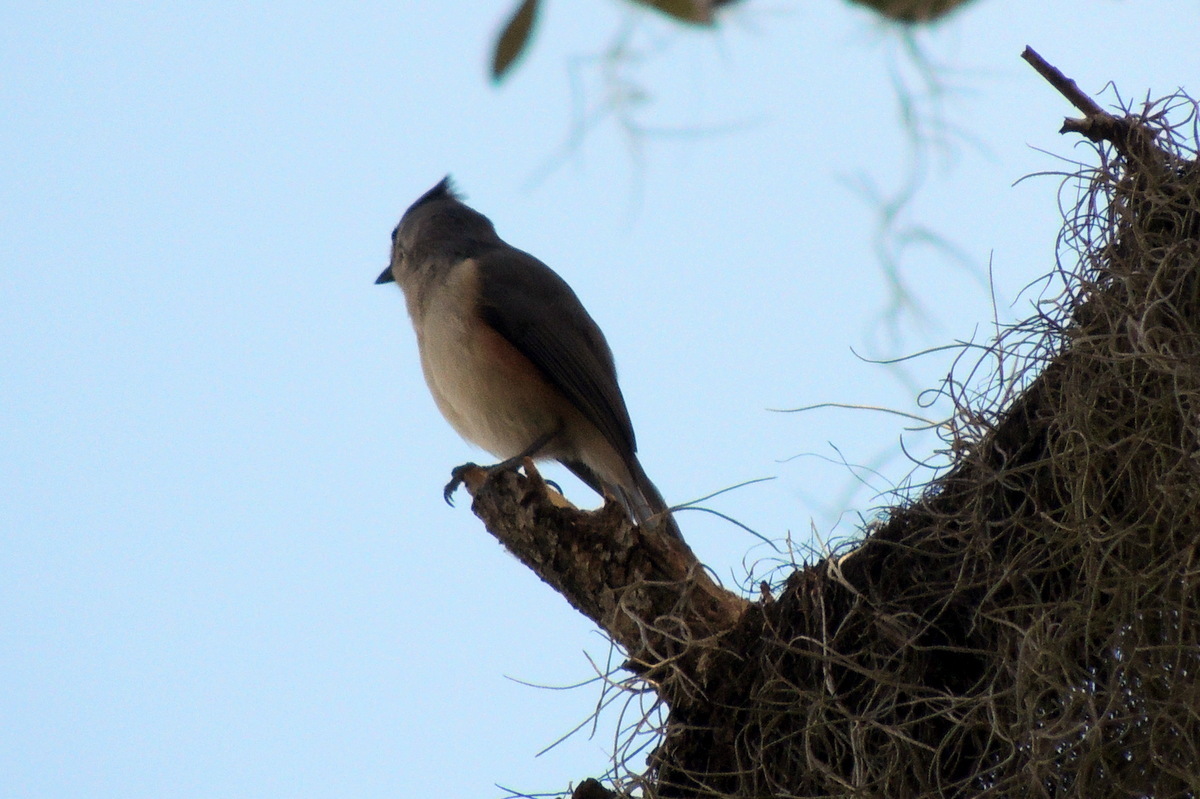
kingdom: Animalia
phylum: Chordata
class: Aves
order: Passeriformes
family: Paridae
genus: Baeolophus
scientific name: Baeolophus bicolor
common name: Tufted titmouse
